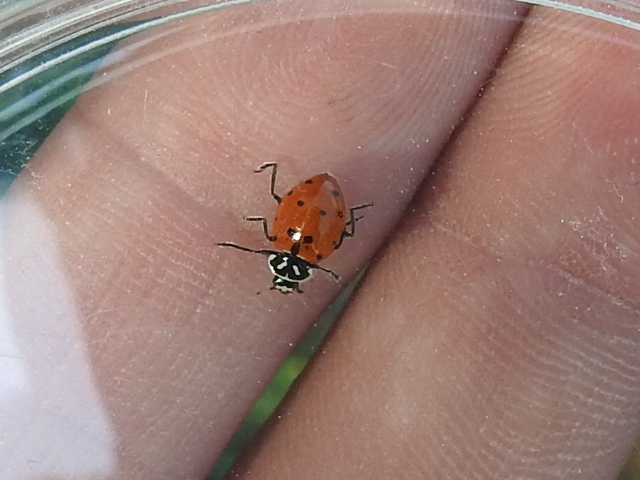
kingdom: Animalia
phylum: Arthropoda
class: Insecta
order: Coleoptera
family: Coccinellidae
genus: Hippodamia
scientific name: Hippodamia convergens
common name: Convergent lady beetle
